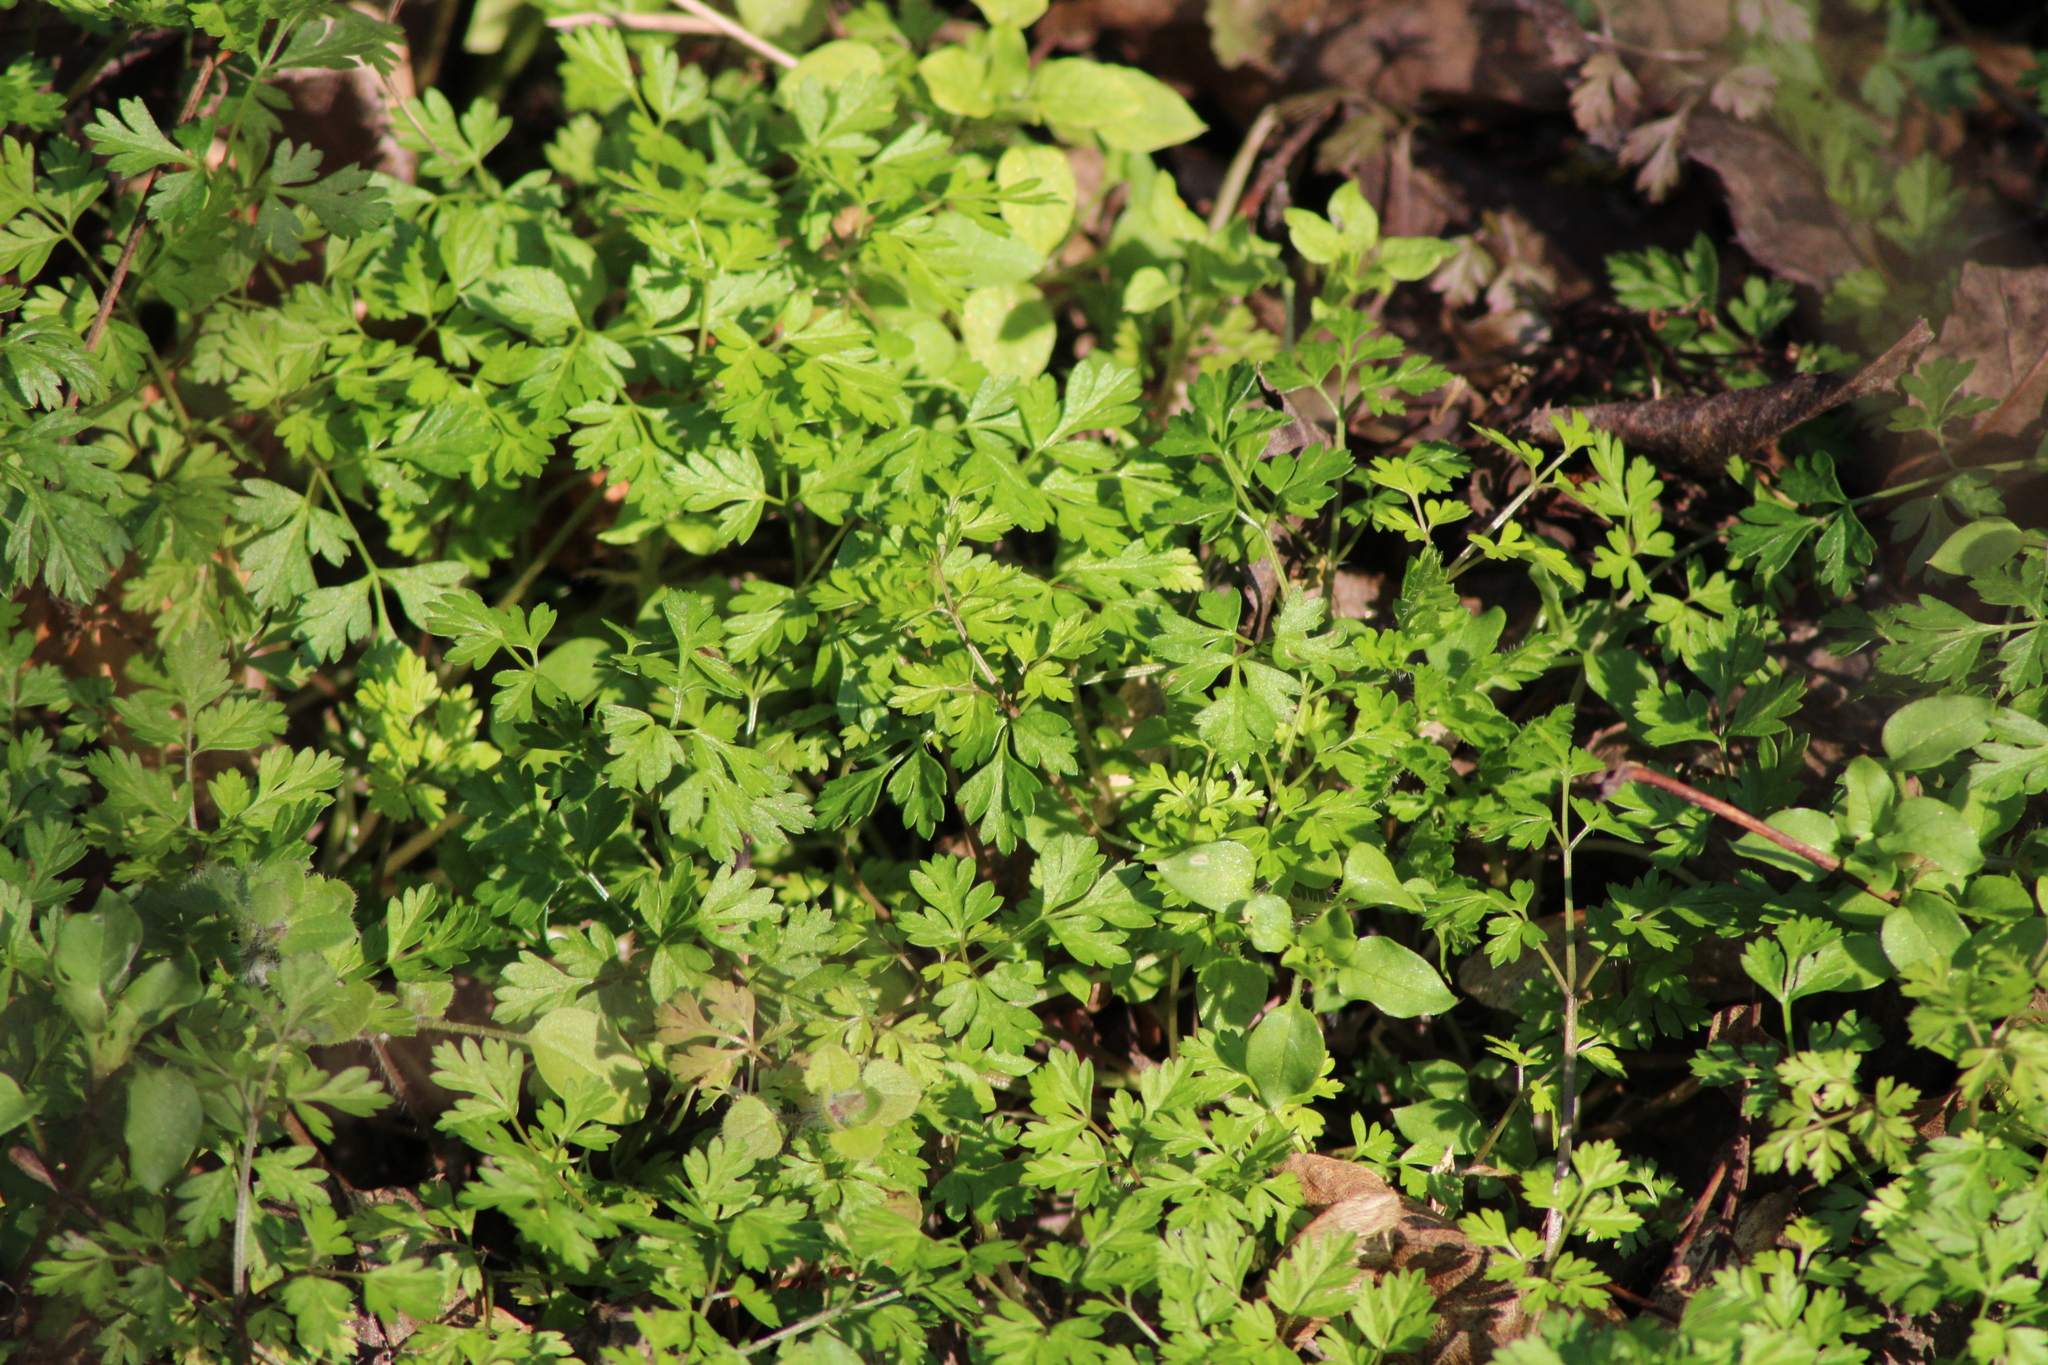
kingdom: Plantae
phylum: Tracheophyta
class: Magnoliopsida
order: Apiales
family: Apiaceae
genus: Anthriscus
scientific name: Anthriscus cerefolium
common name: Garden chervil
